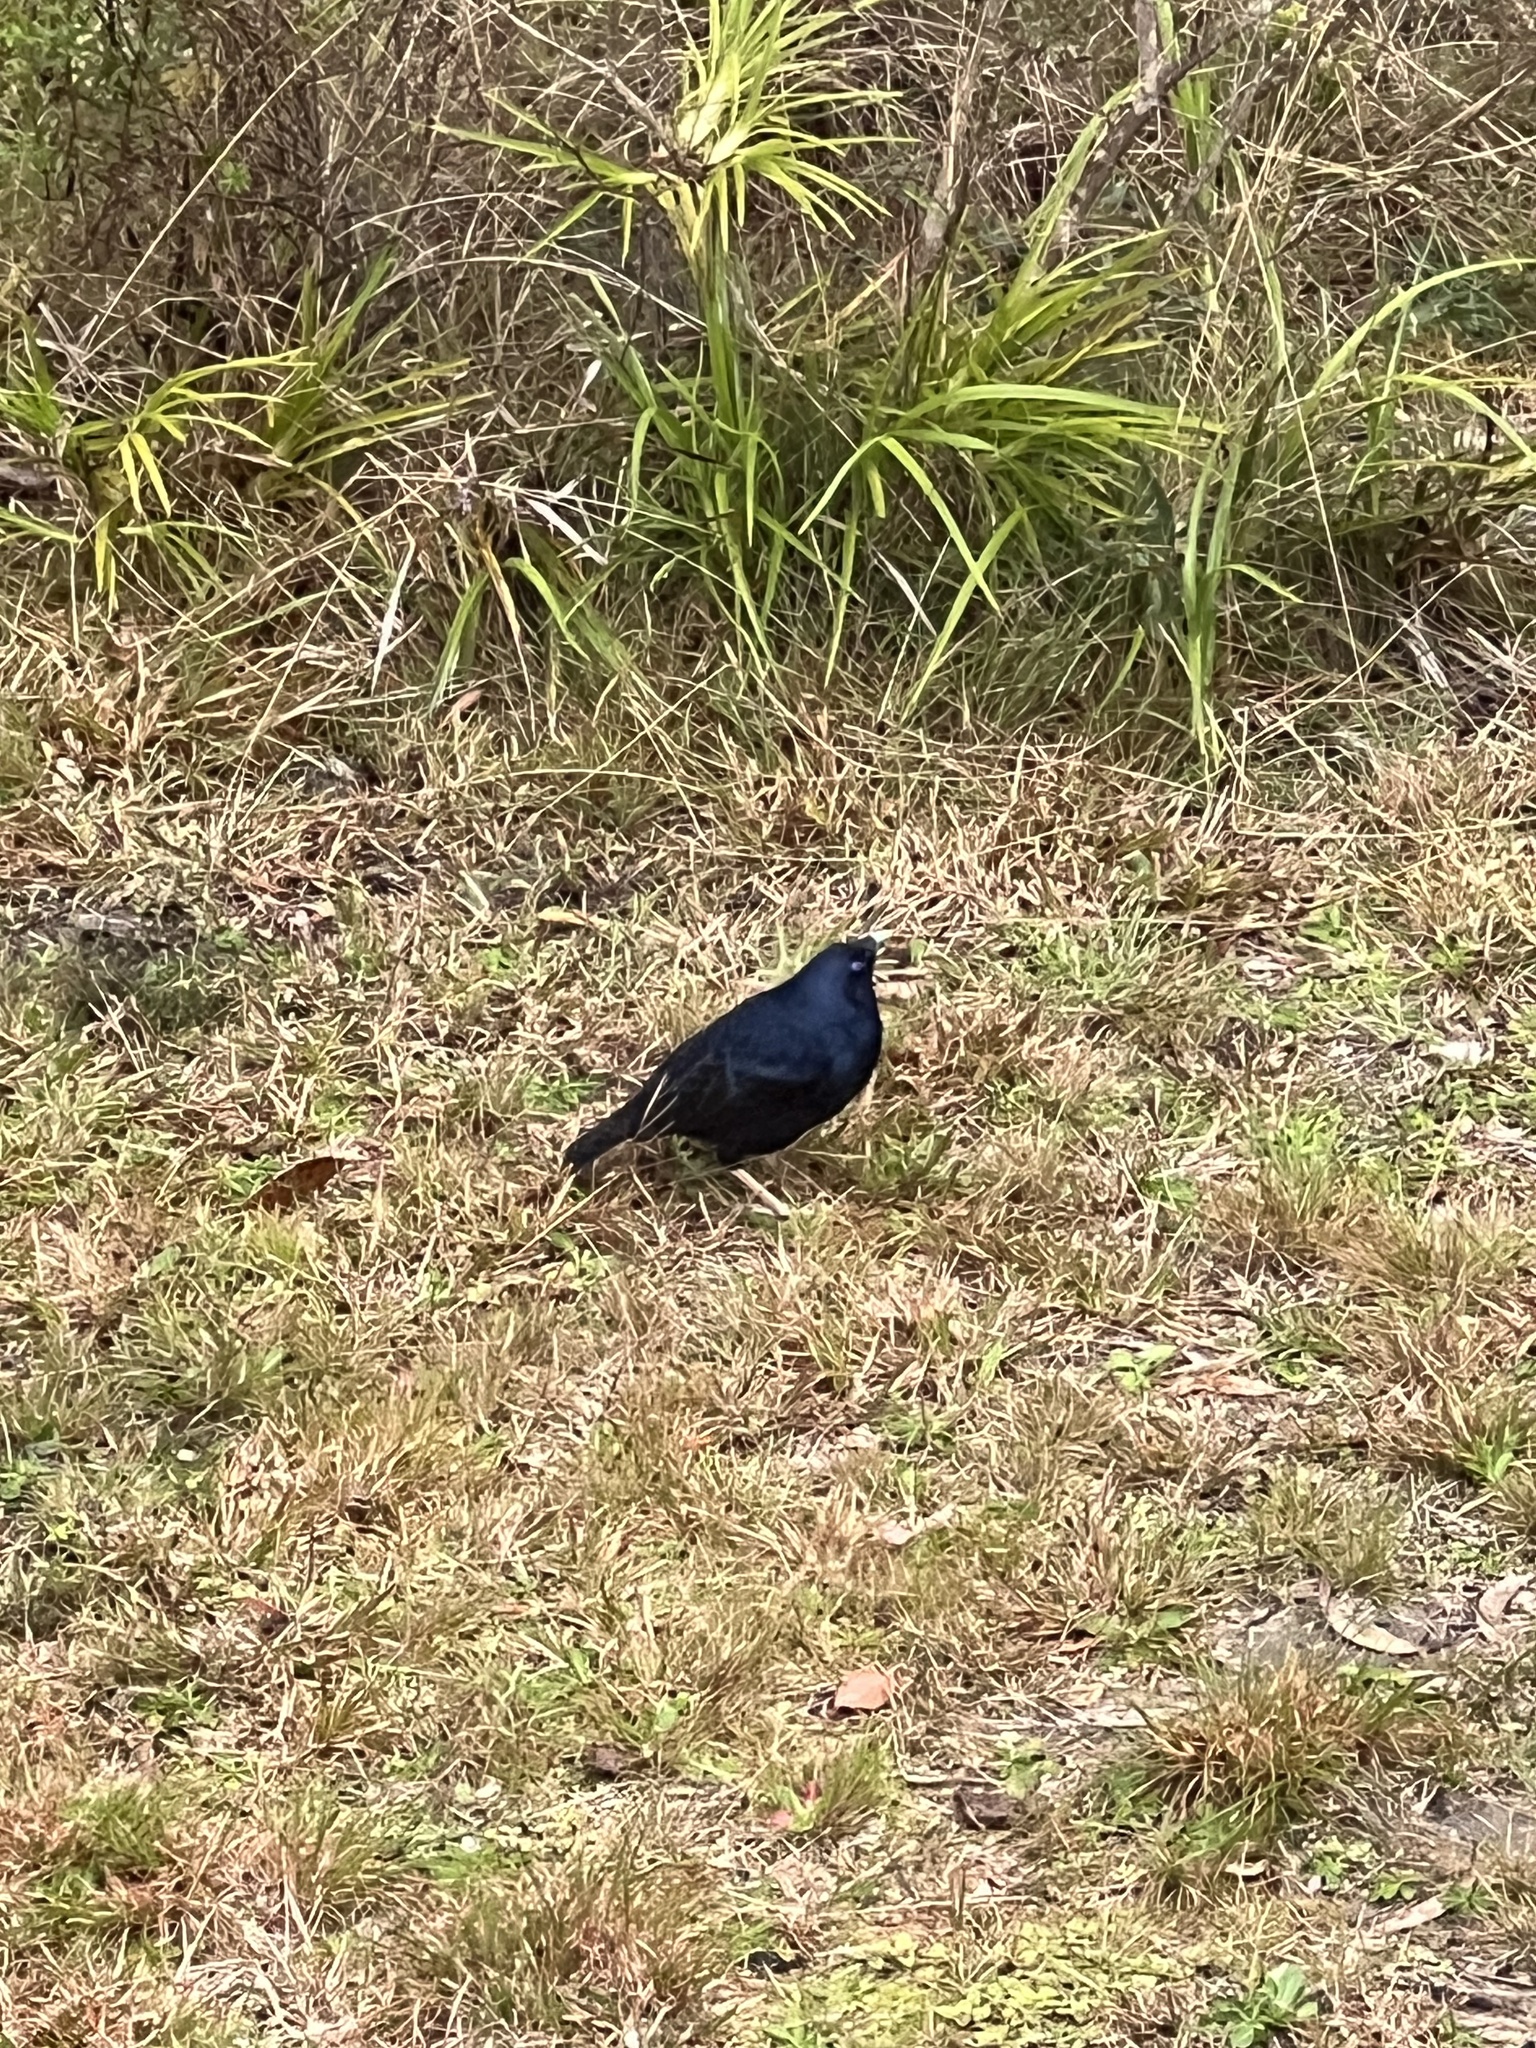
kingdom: Animalia
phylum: Chordata
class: Aves
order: Passeriformes
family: Ptilonorhynchidae
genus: Ptilonorhynchus
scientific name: Ptilonorhynchus violaceus
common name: Satin bowerbird
